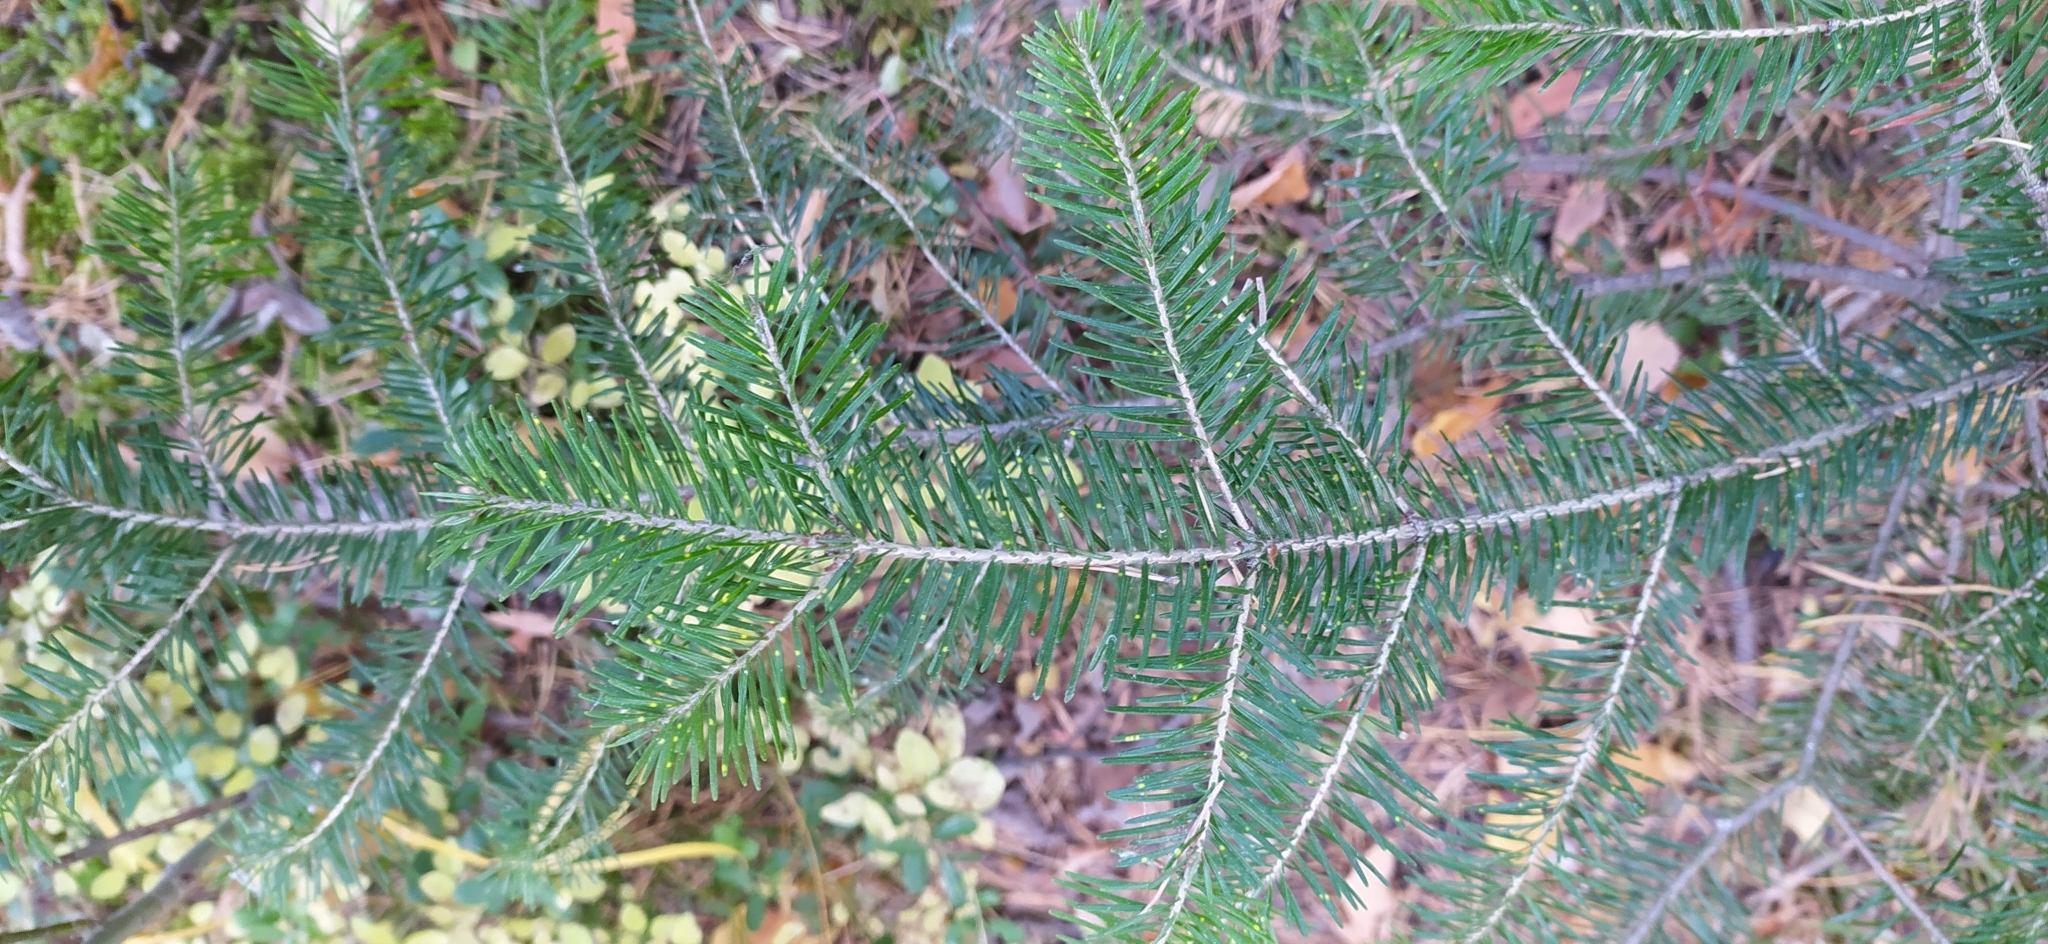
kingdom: Plantae
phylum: Tracheophyta
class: Pinopsida
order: Pinales
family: Pinaceae
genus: Abies
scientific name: Abies sibirica
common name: Siberian fir
